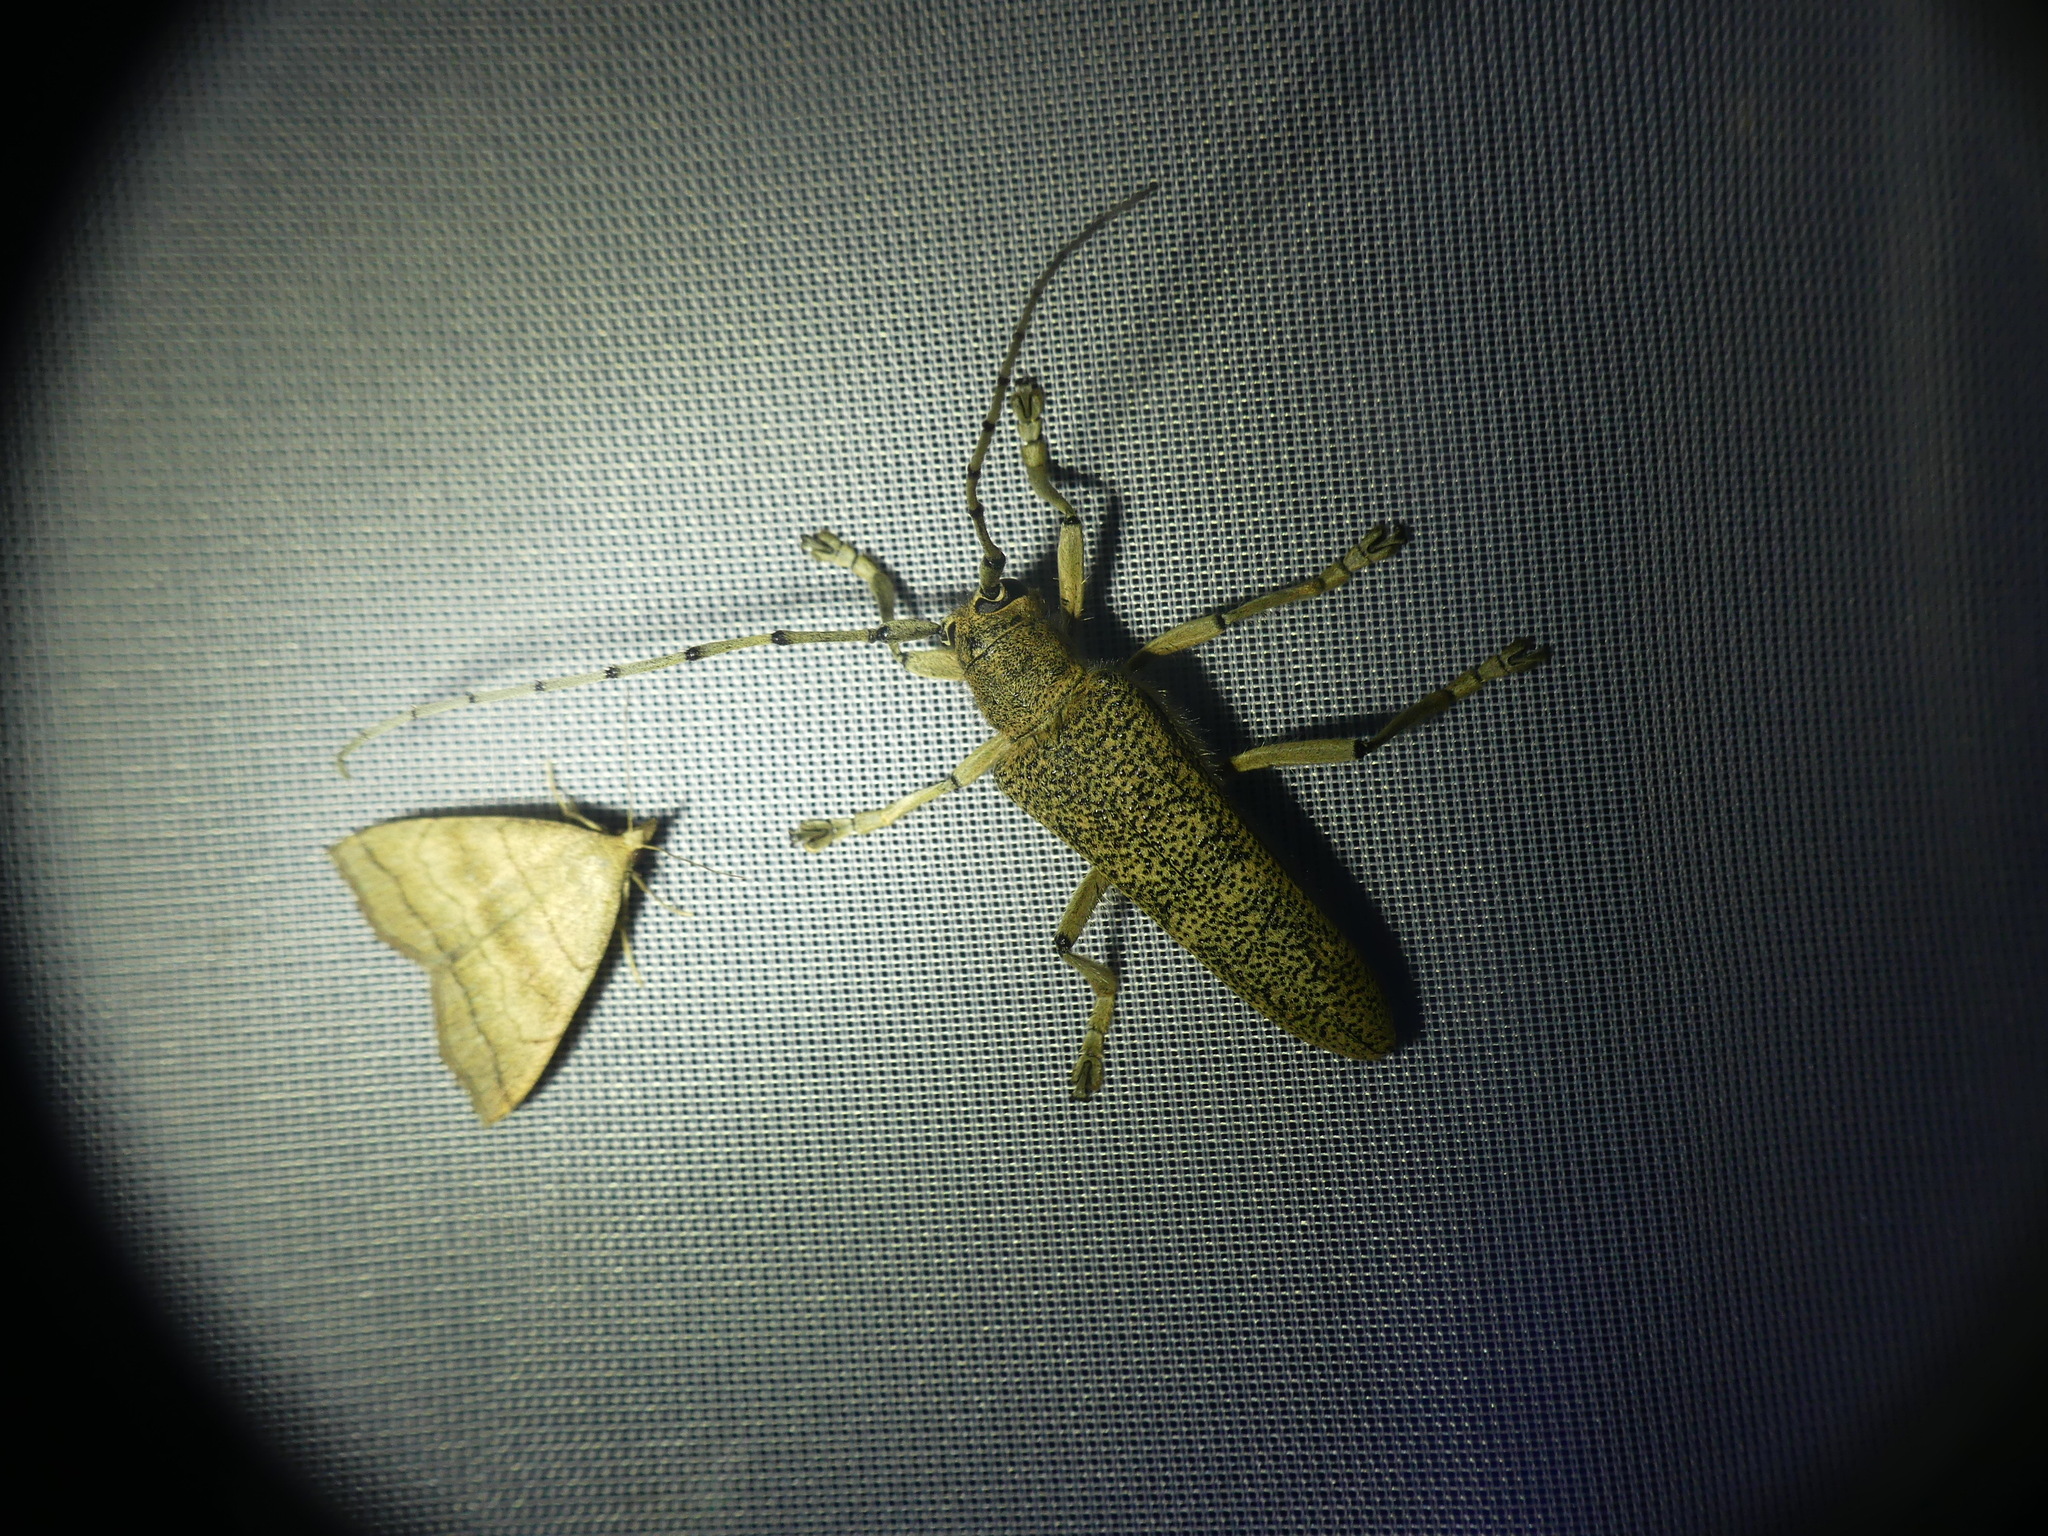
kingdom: Animalia
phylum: Arthropoda
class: Insecta
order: Coleoptera
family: Cerambycidae
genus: Saperda
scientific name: Saperda carcharias
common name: Poplar borer
